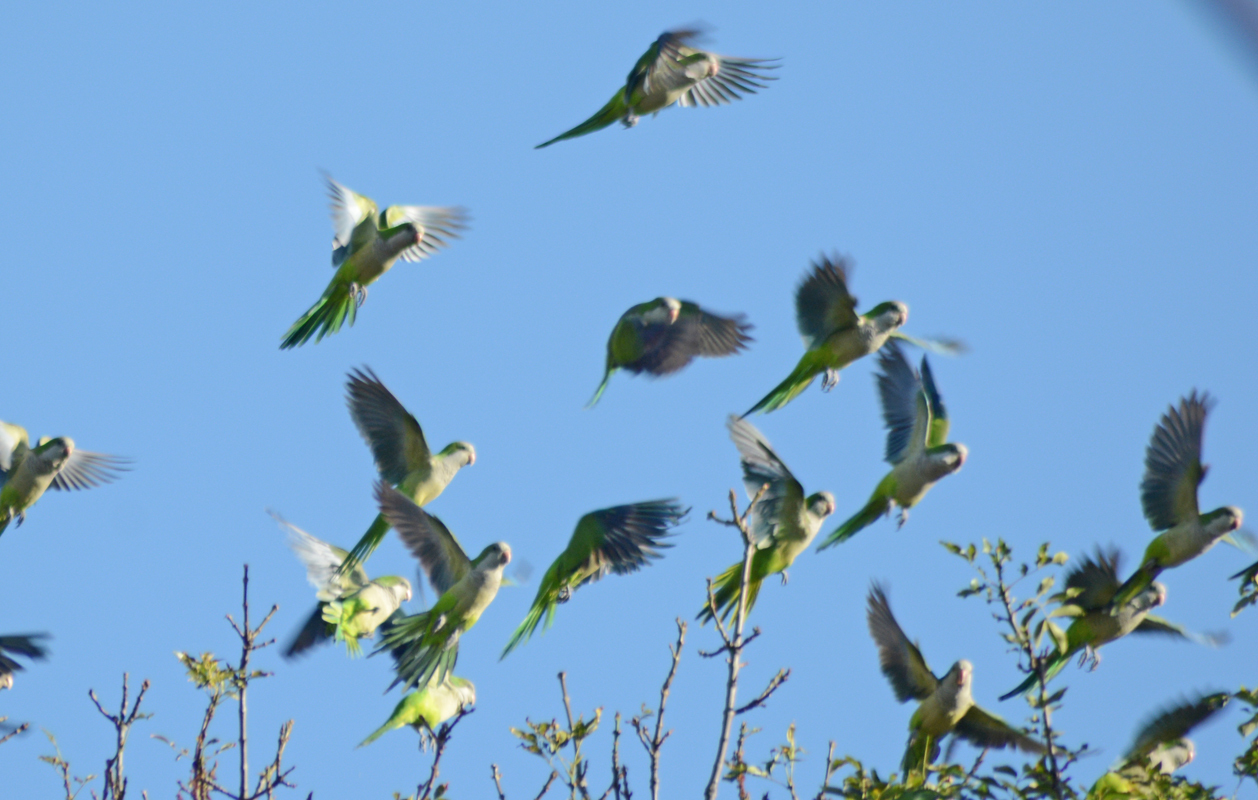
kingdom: Animalia
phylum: Chordata
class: Aves
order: Psittaciformes
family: Psittacidae
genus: Myiopsitta
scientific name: Myiopsitta monachus
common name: Monk parakeet
